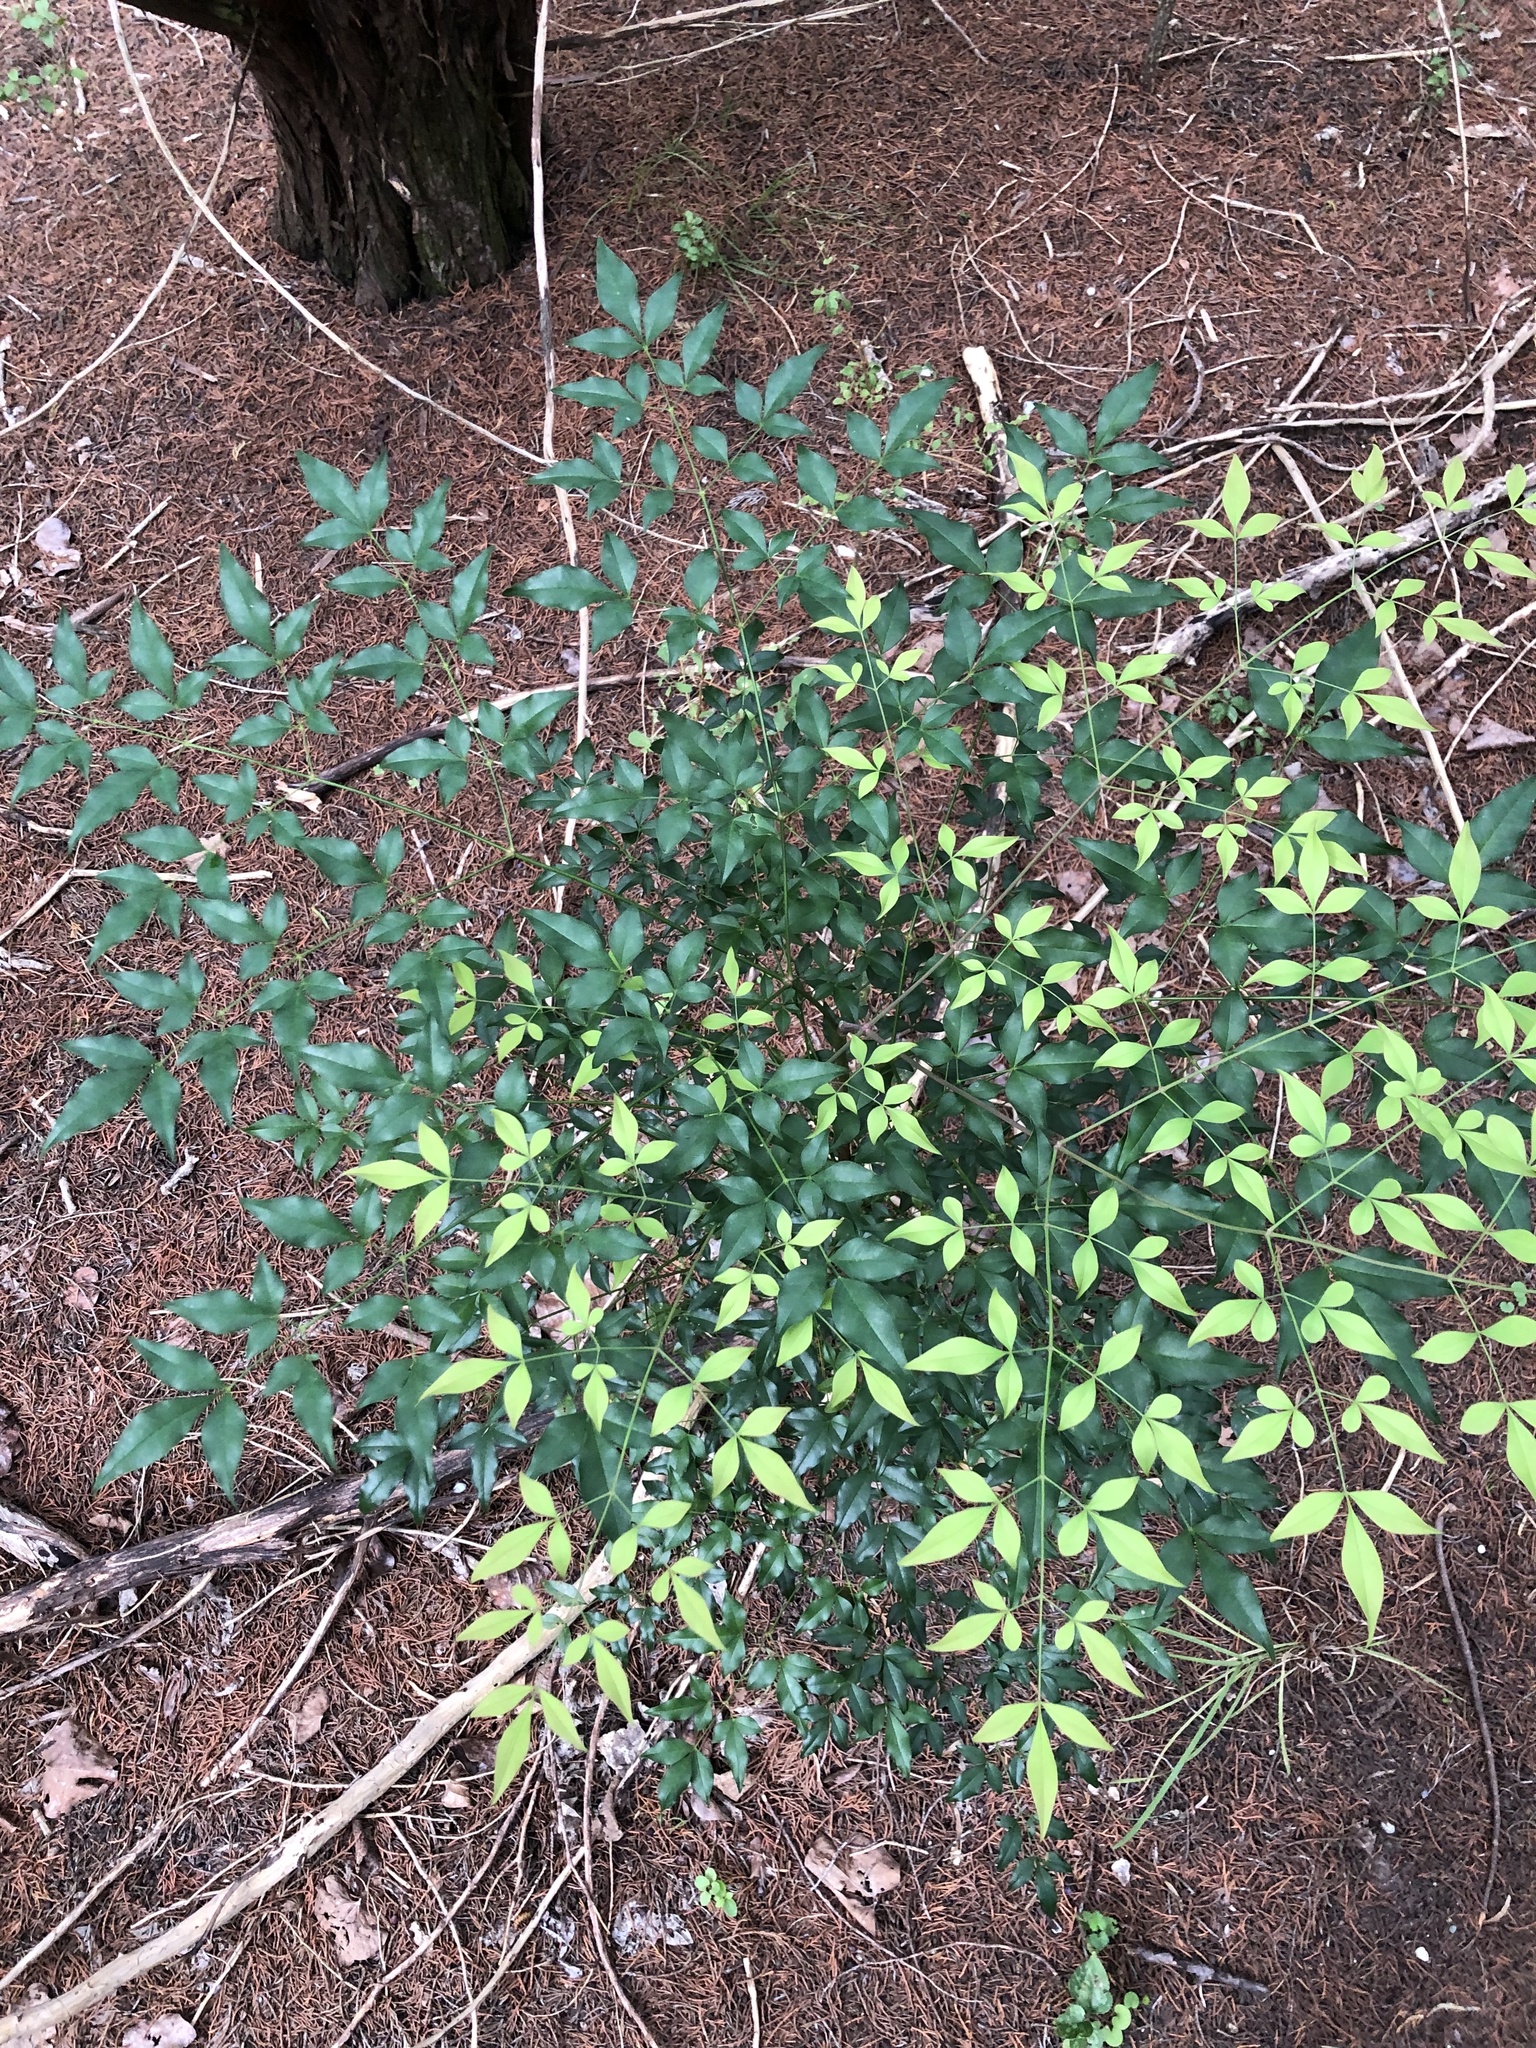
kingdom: Plantae
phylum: Tracheophyta
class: Magnoliopsida
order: Ranunculales
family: Berberidaceae
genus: Nandina
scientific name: Nandina domestica
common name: Sacred bamboo
